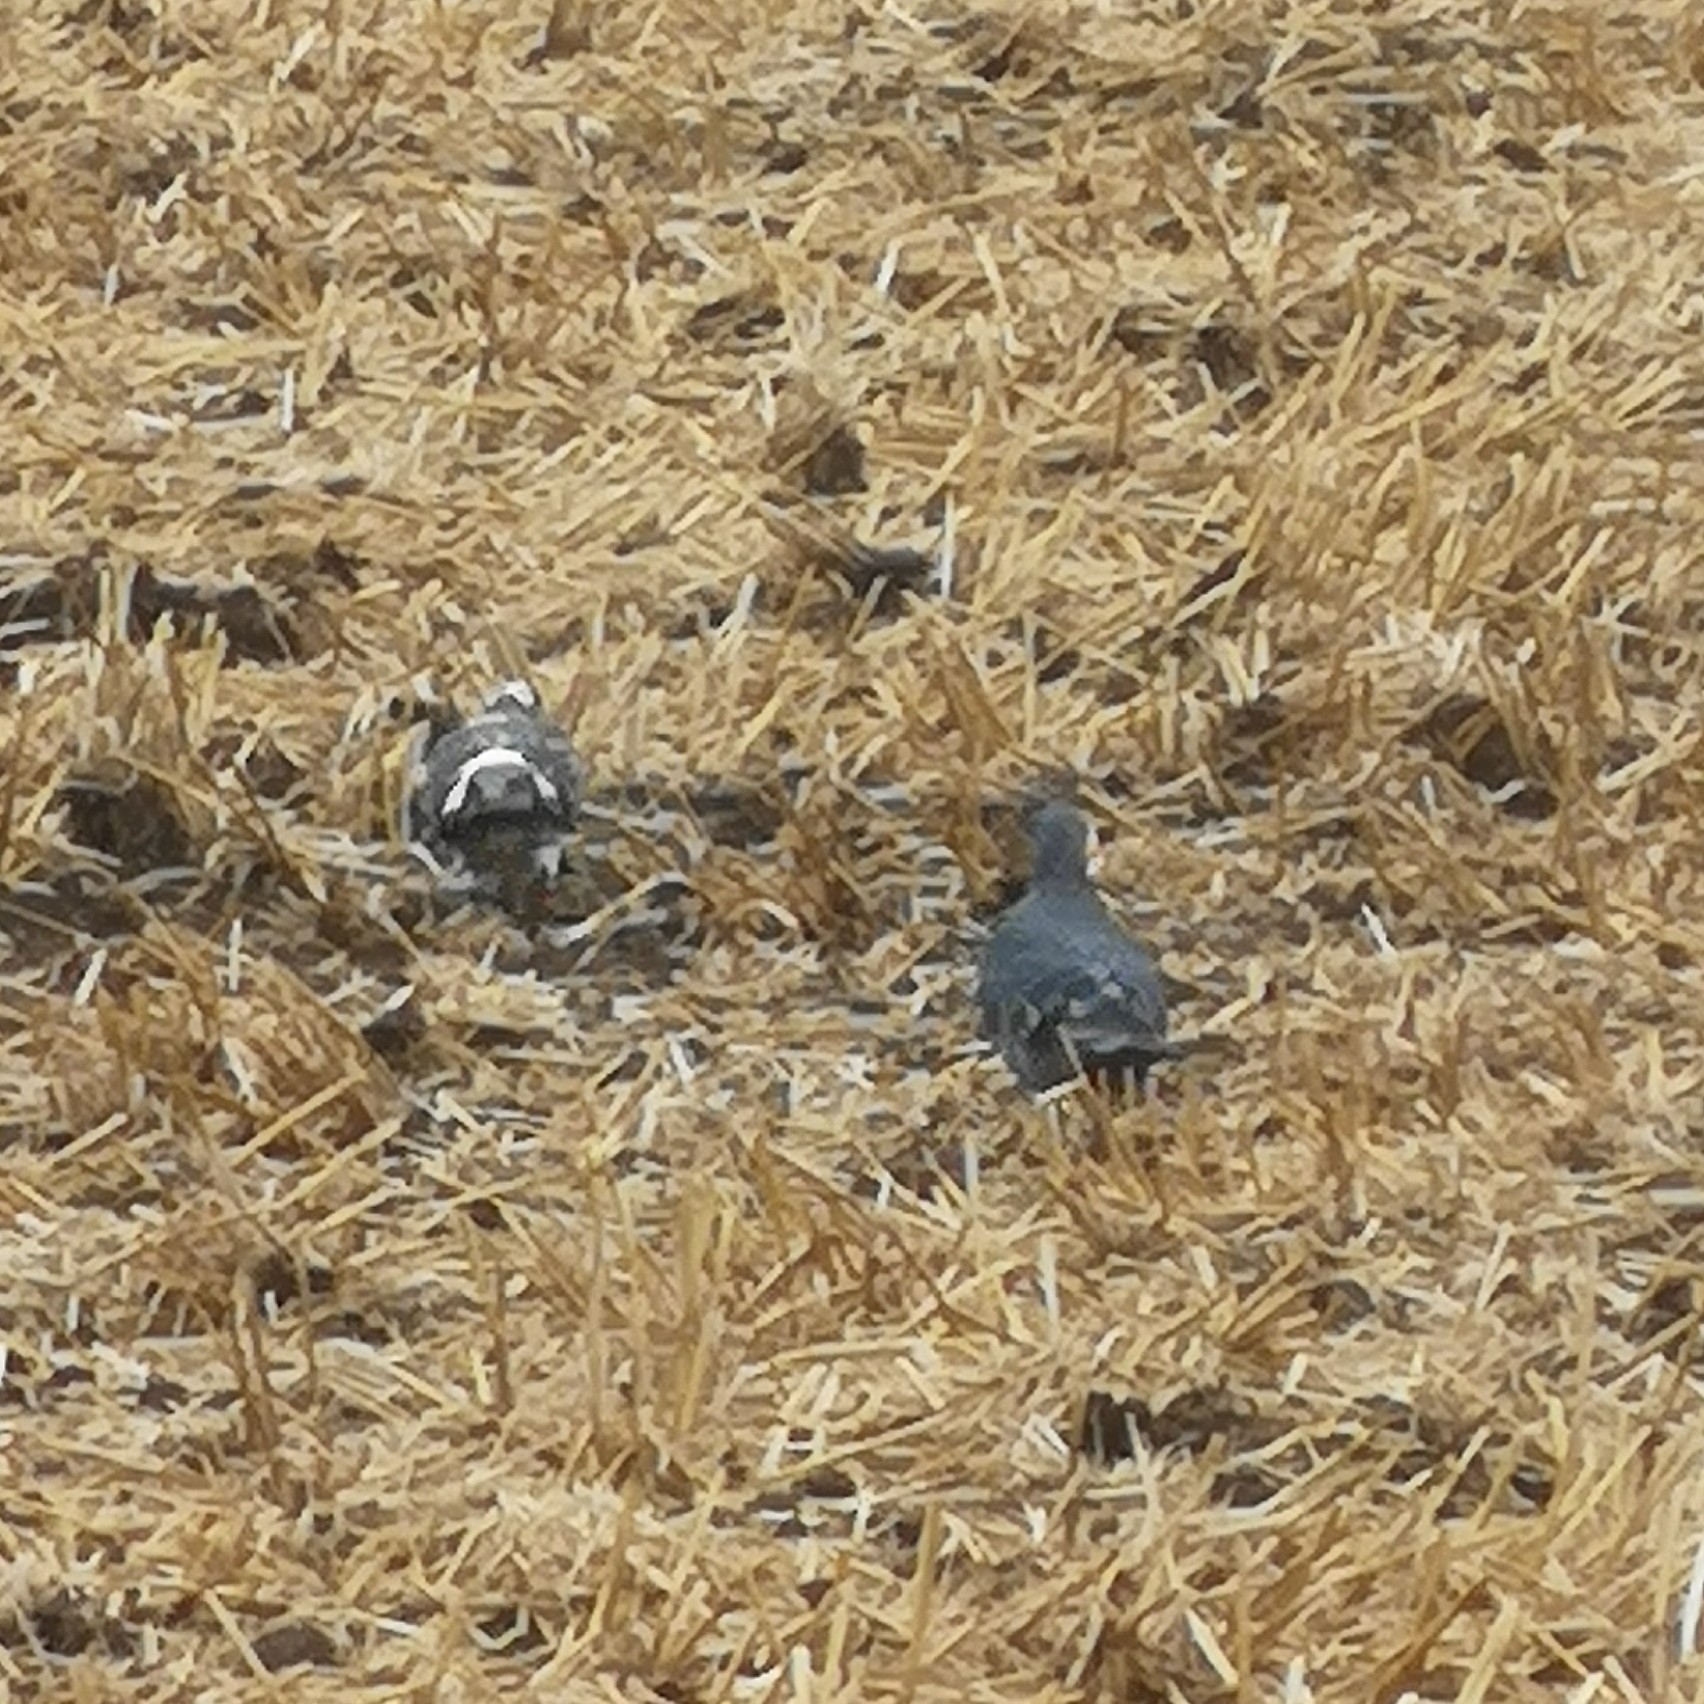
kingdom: Animalia
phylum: Chordata
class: Aves
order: Columbiformes
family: Columbidae
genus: Columba
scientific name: Columba livia
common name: Rock pigeon
